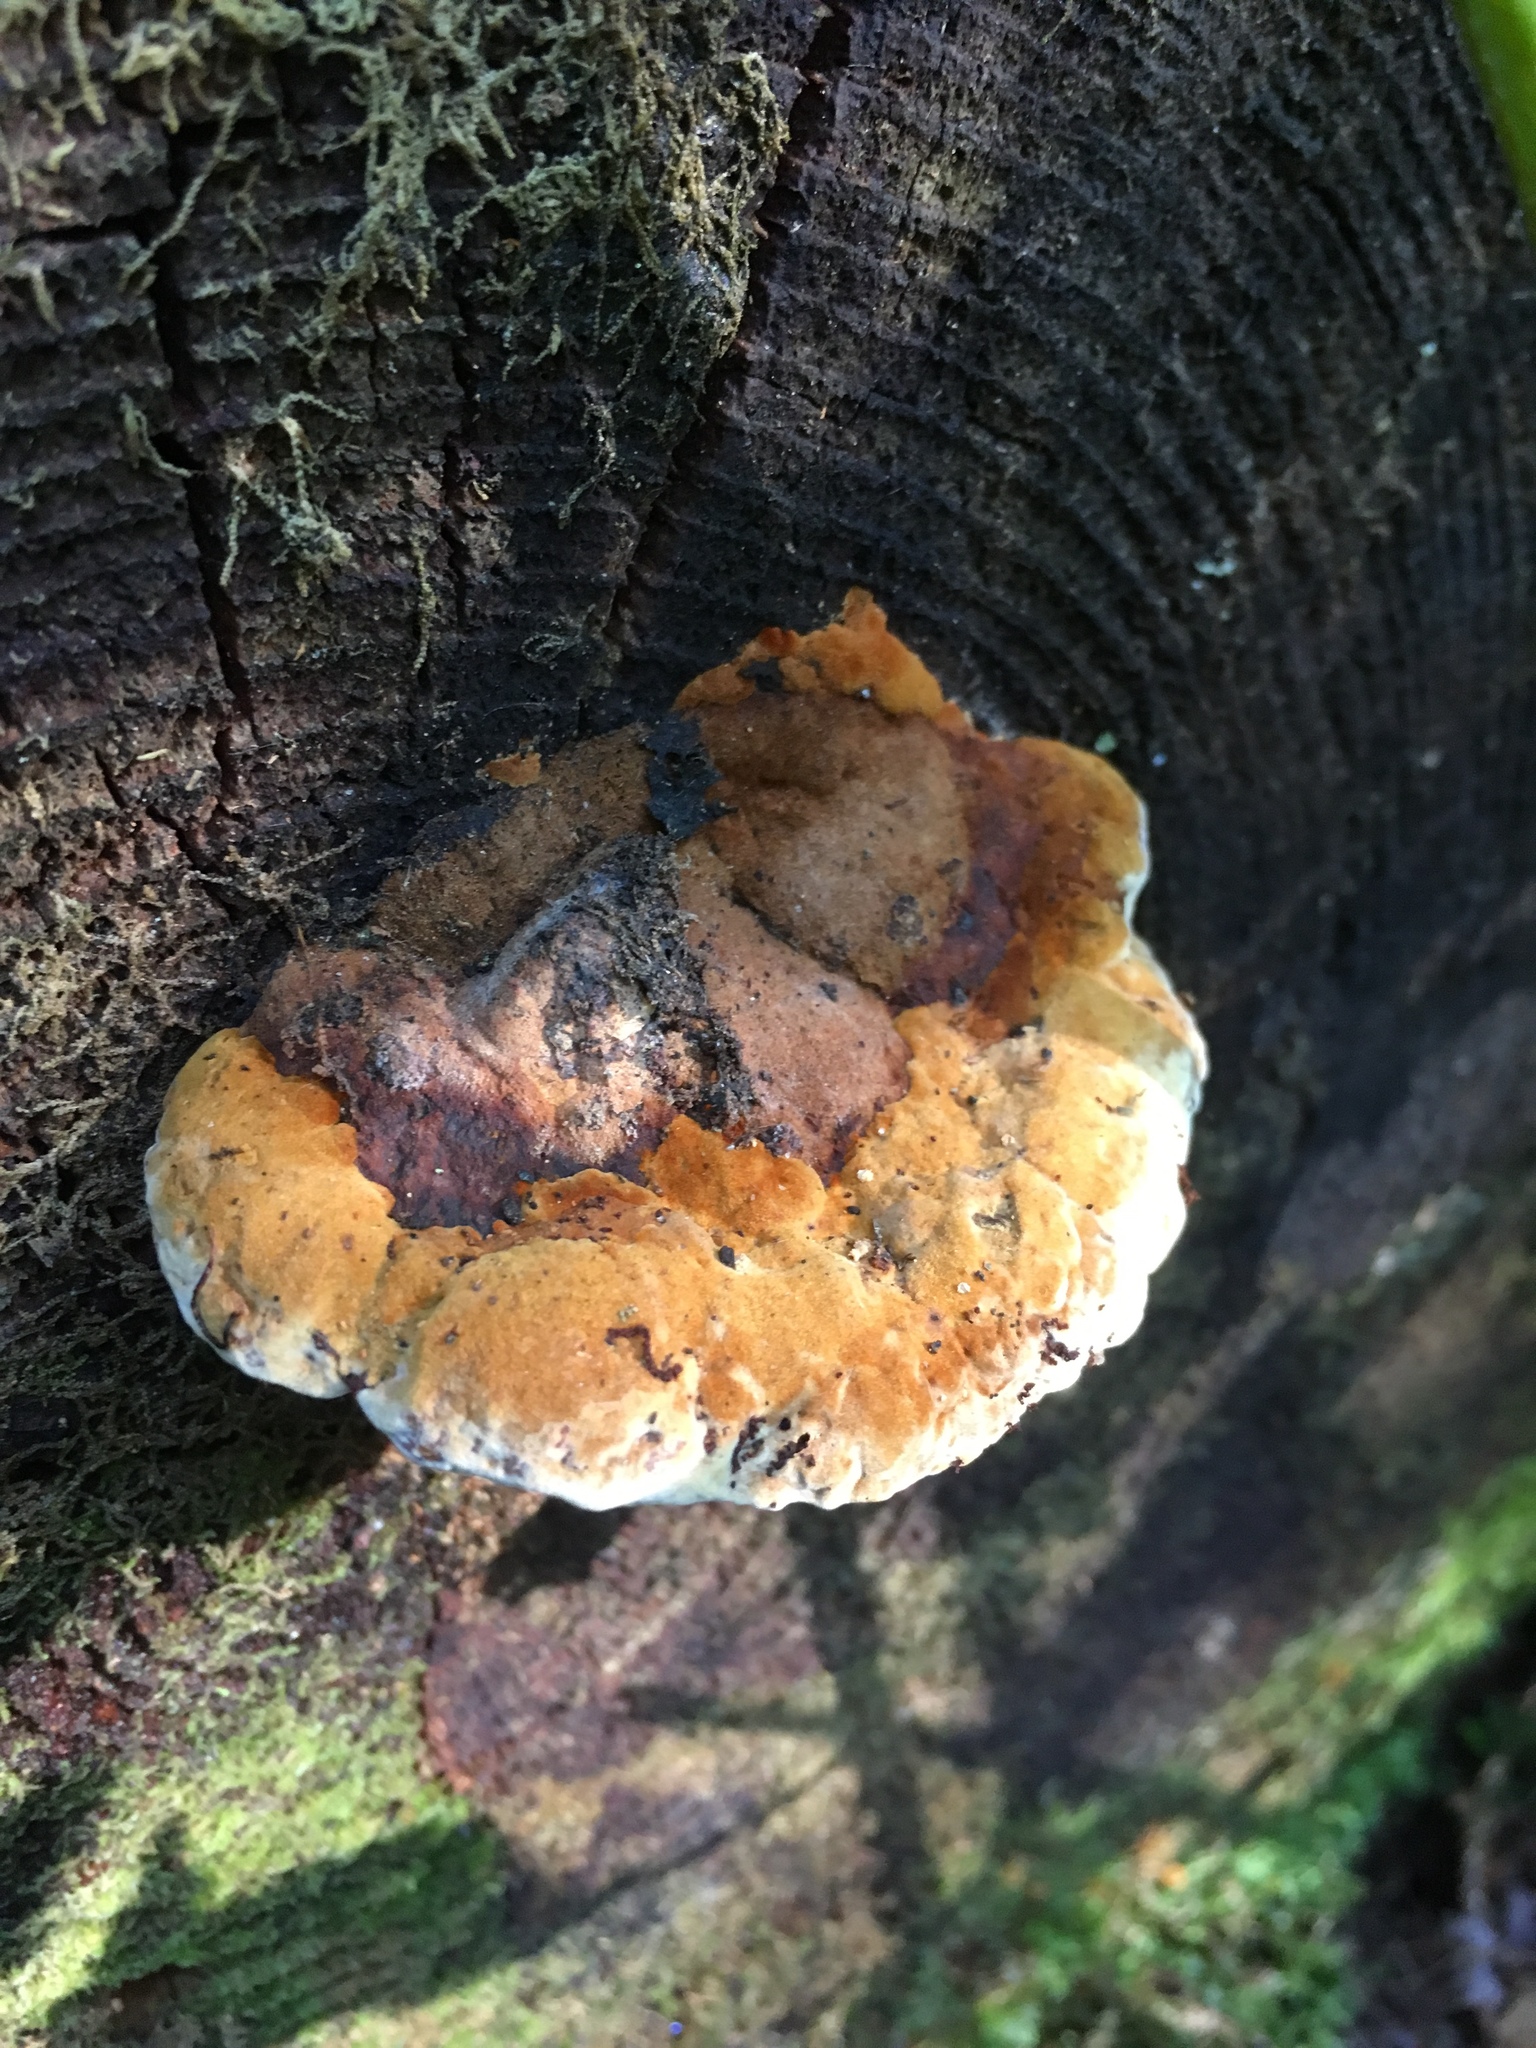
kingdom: Fungi
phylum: Basidiomycota
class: Agaricomycetes
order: Gloeophyllales
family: Gloeophyllaceae
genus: Gloeophyllum
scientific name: Gloeophyllum odoratum
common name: Anise mazegill
